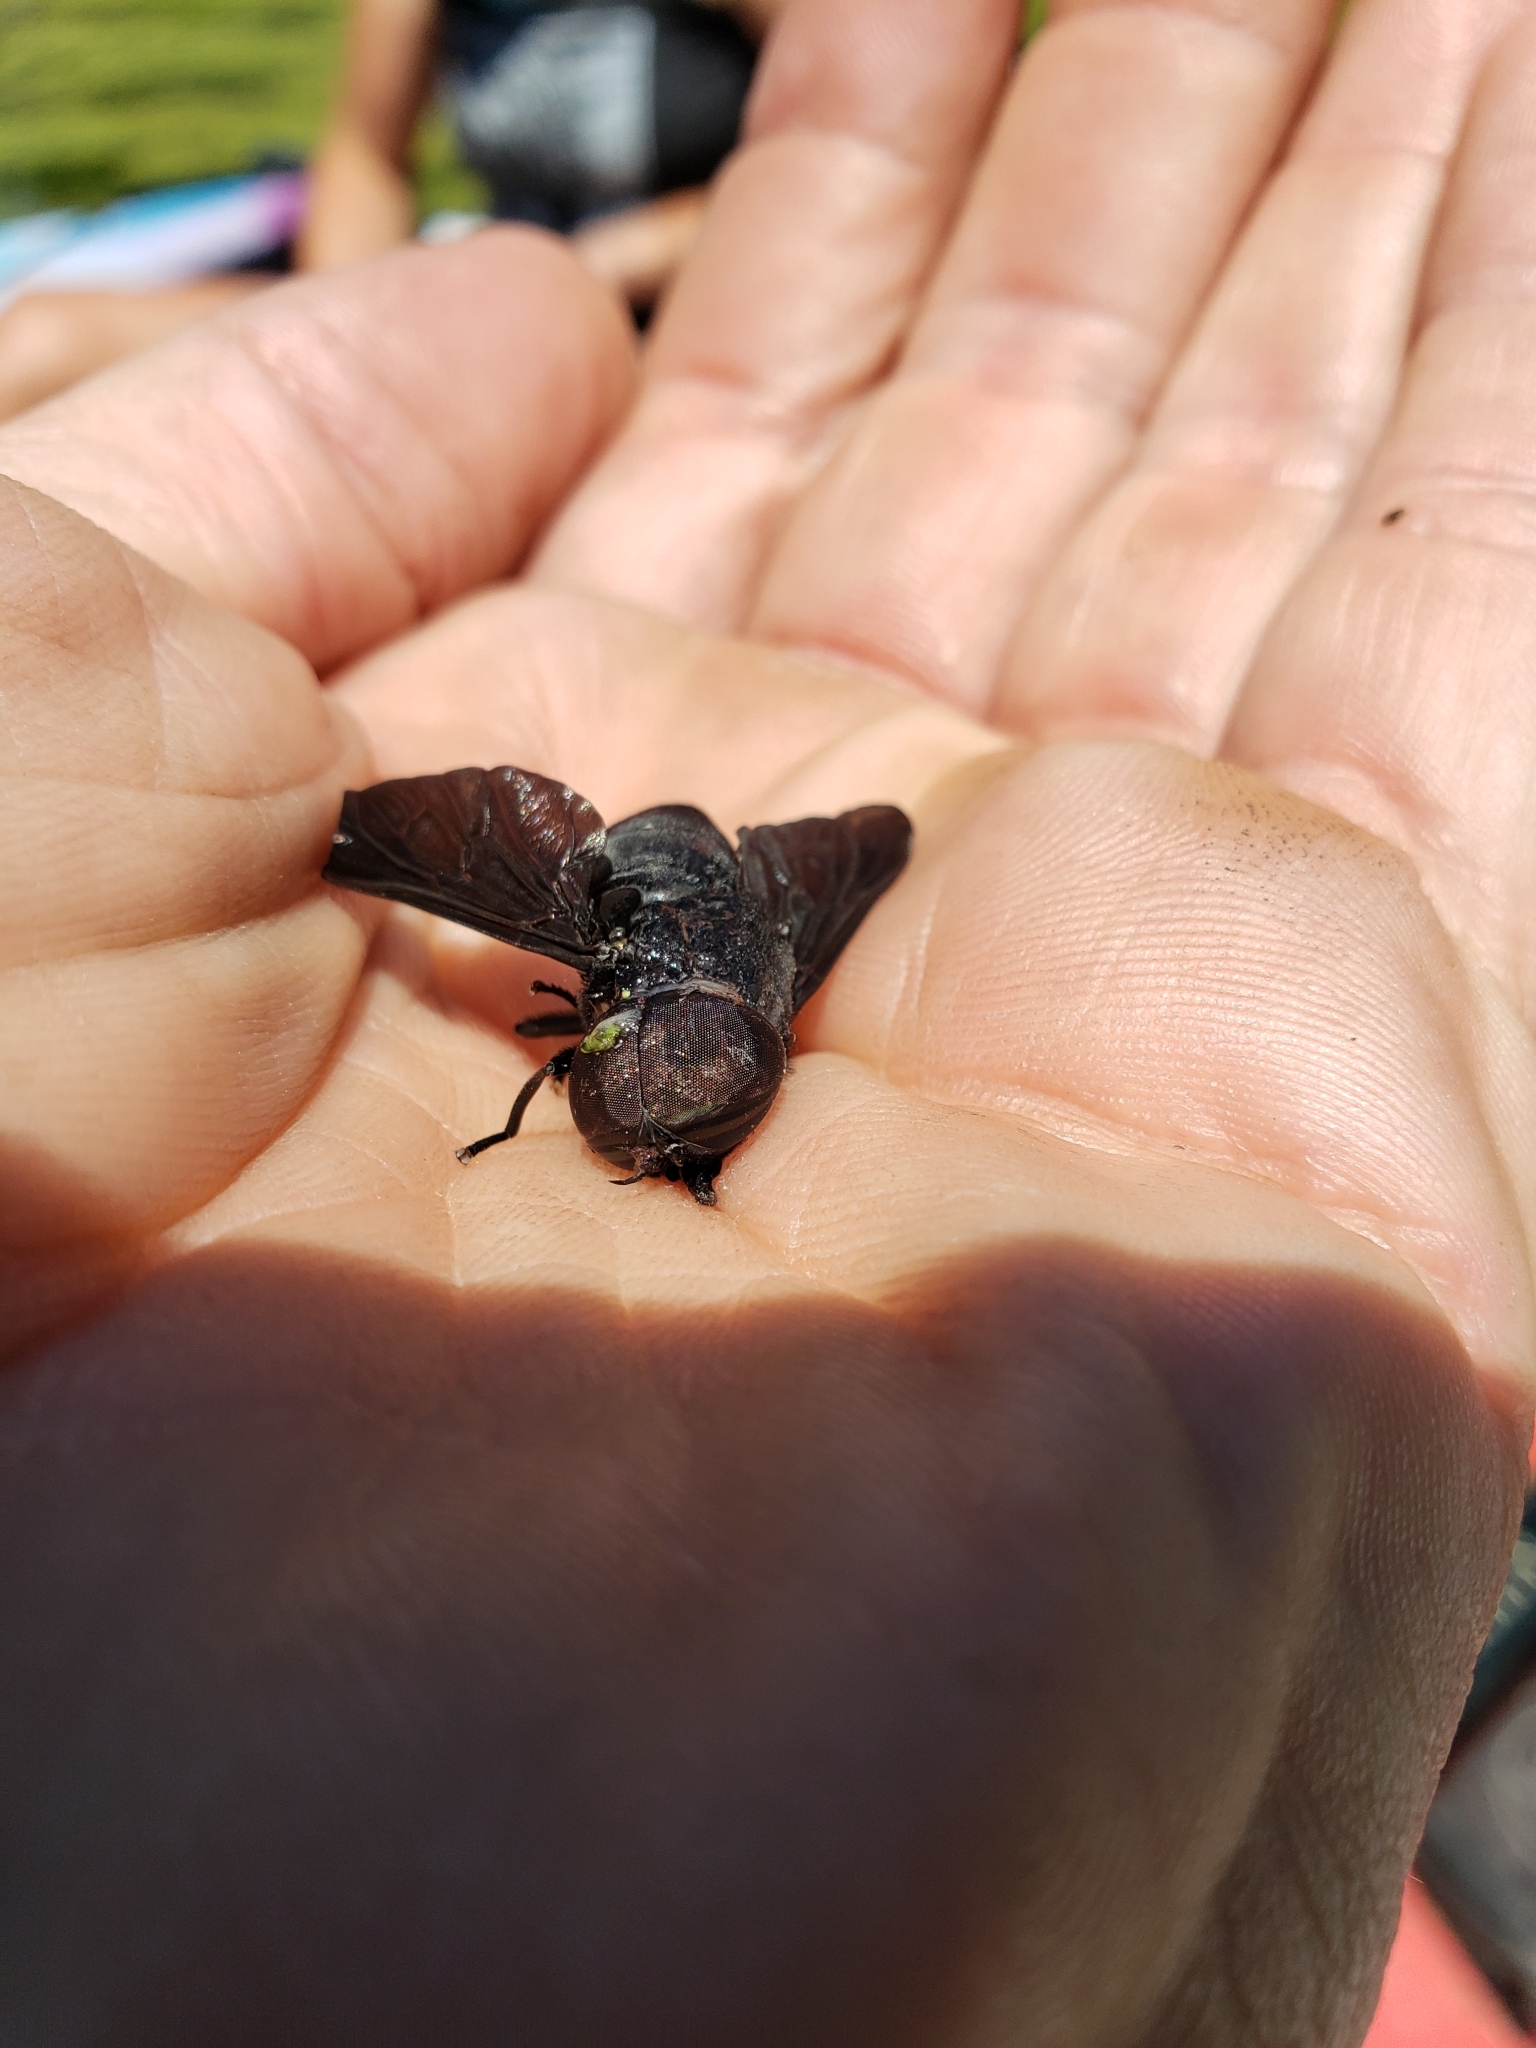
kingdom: Animalia
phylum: Arthropoda
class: Insecta
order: Diptera
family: Tabanidae
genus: Tabanus
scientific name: Tabanus atratus
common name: Black horse fly
